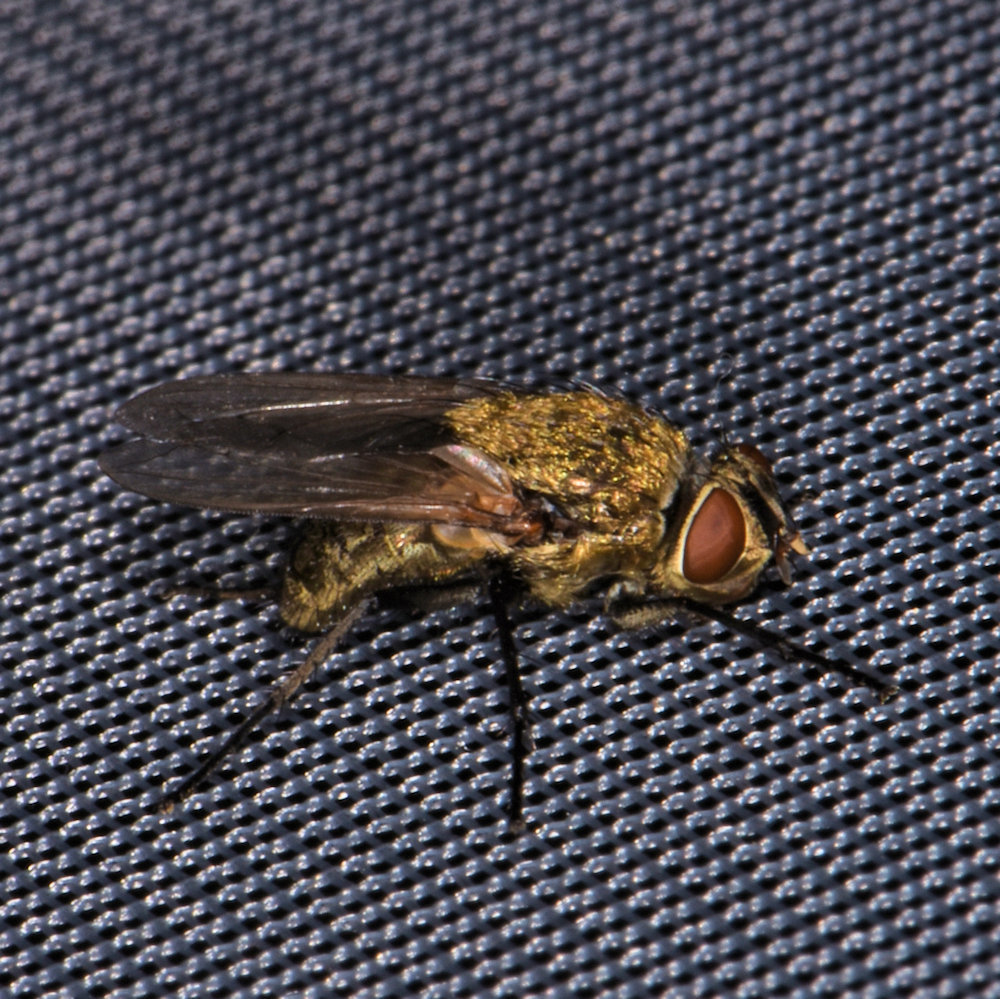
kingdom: Animalia
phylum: Arthropoda
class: Insecta
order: Diptera
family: Polleniidae
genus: Pollenia
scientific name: Pollenia
